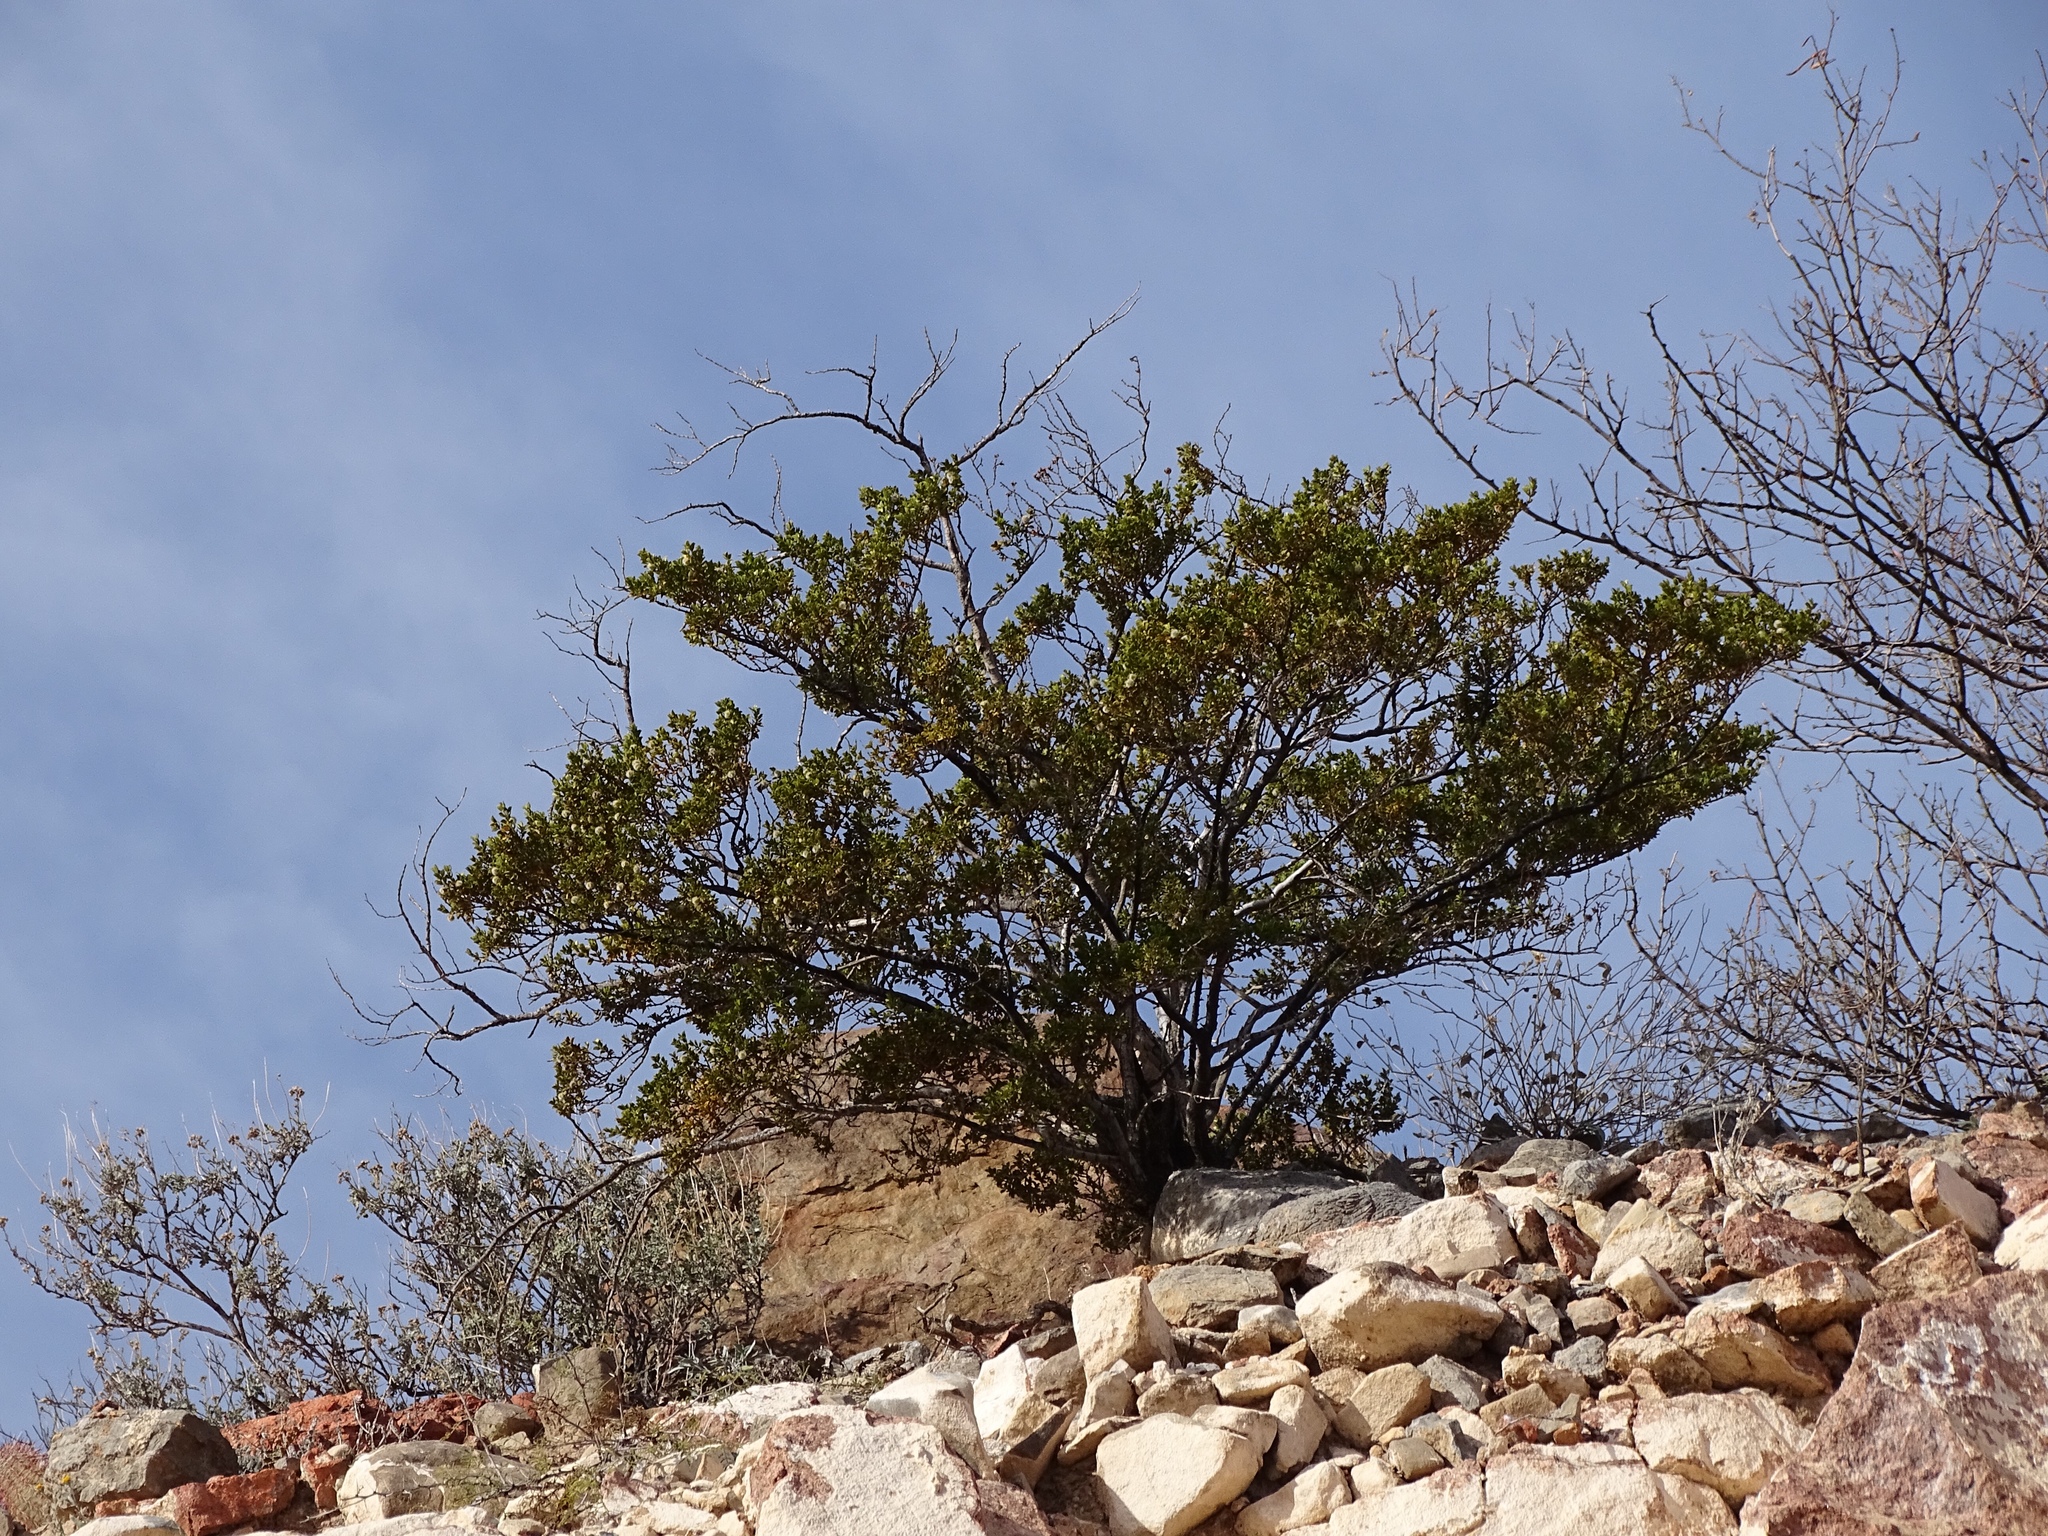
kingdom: Plantae
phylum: Tracheophyta
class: Magnoliopsida
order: Zygophyllales
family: Zygophyllaceae
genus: Larrea
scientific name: Larrea tridentata
